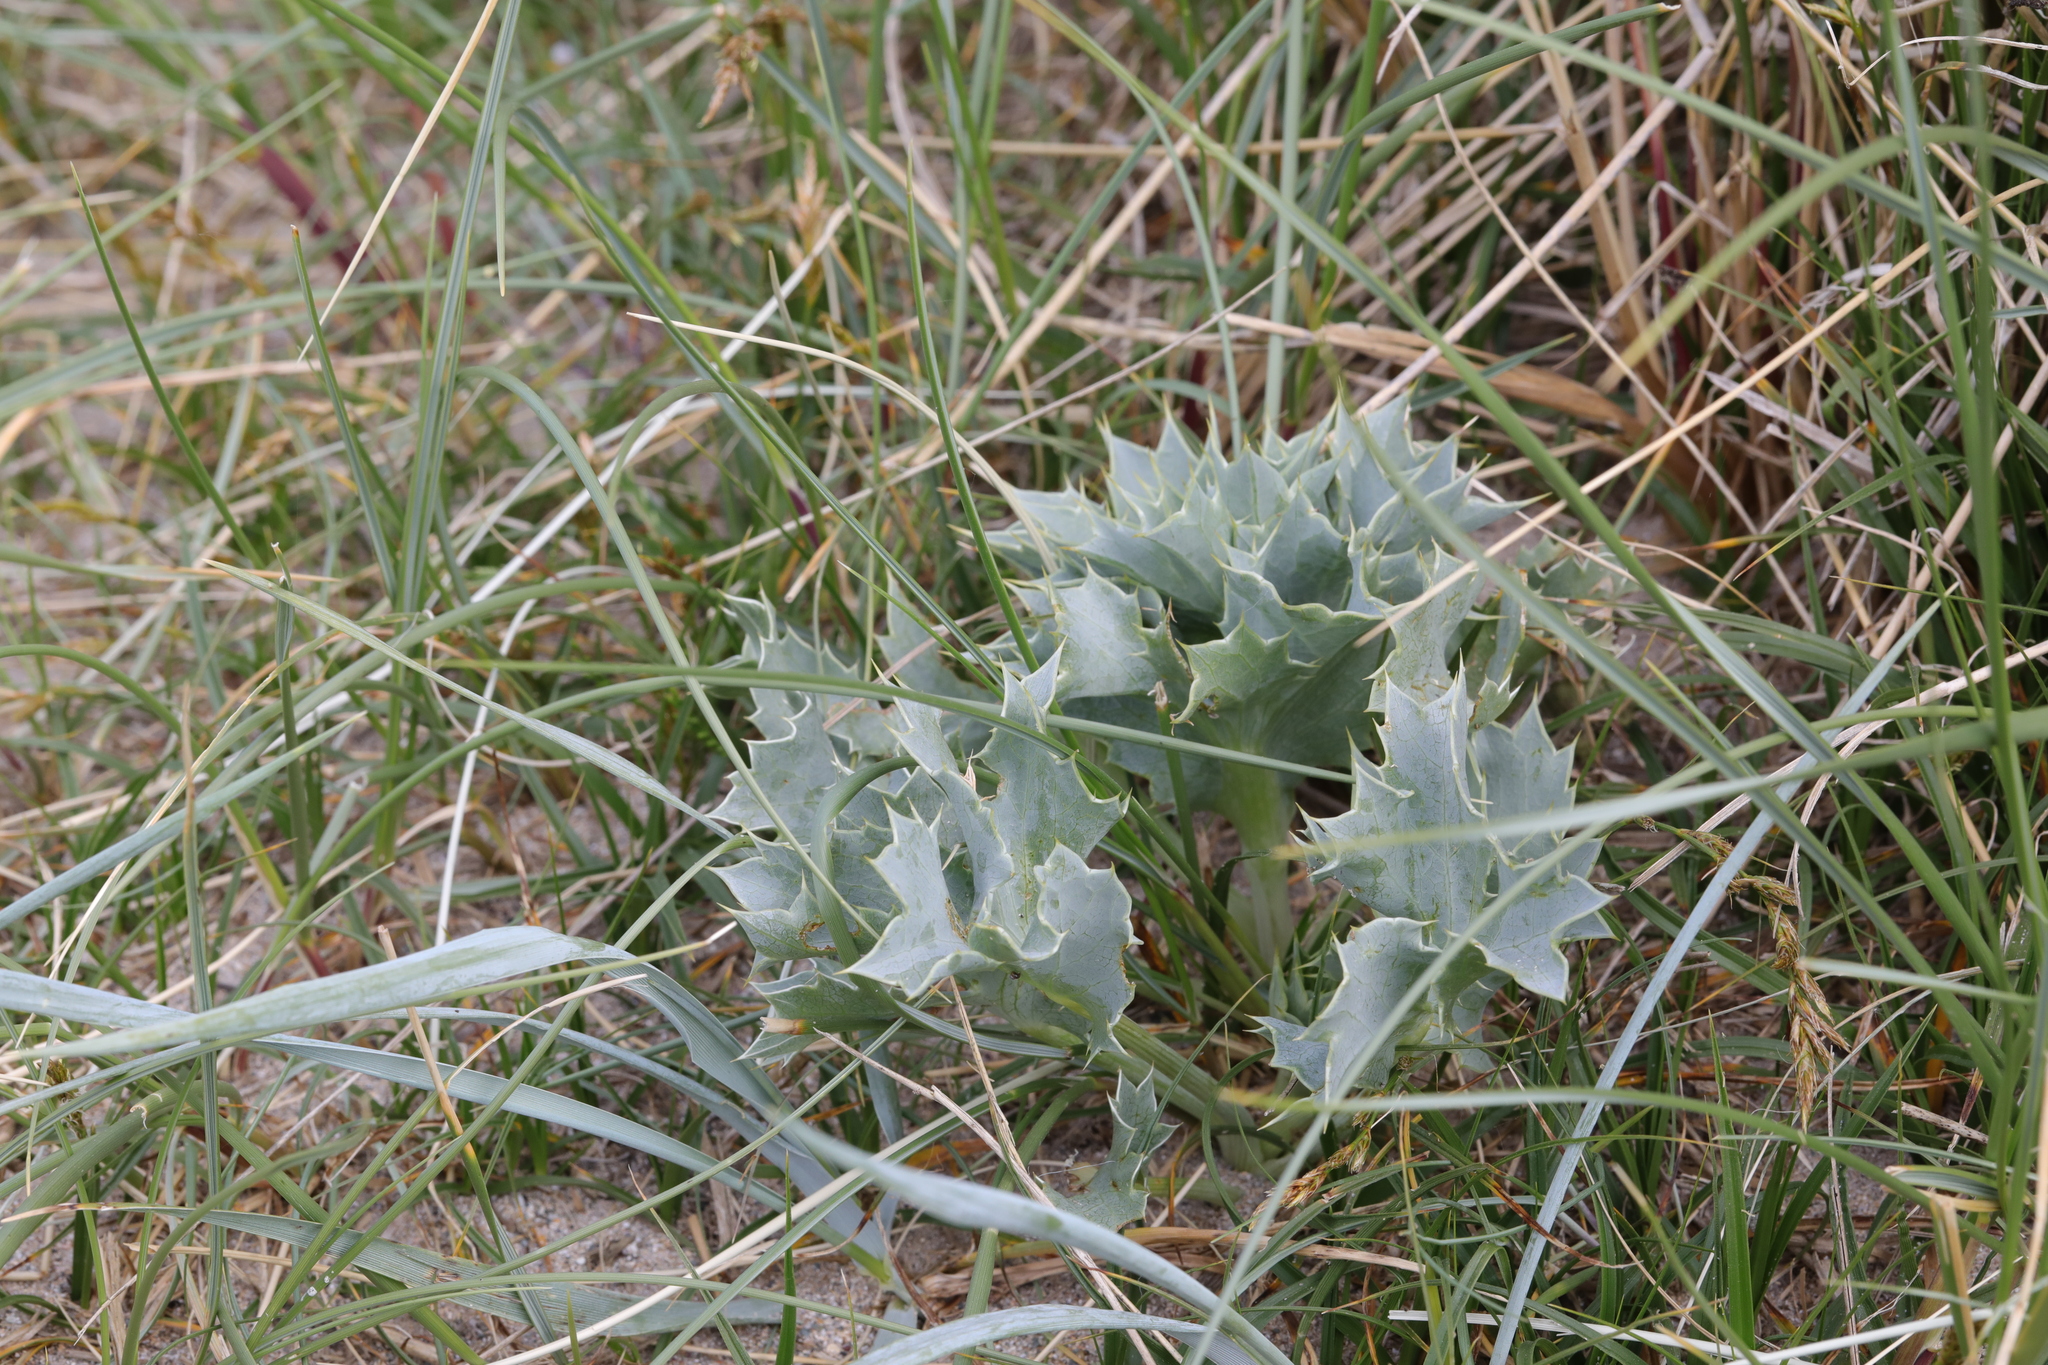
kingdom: Plantae
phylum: Tracheophyta
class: Magnoliopsida
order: Apiales
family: Apiaceae
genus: Eryngium
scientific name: Eryngium maritimum
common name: Sea-holly
